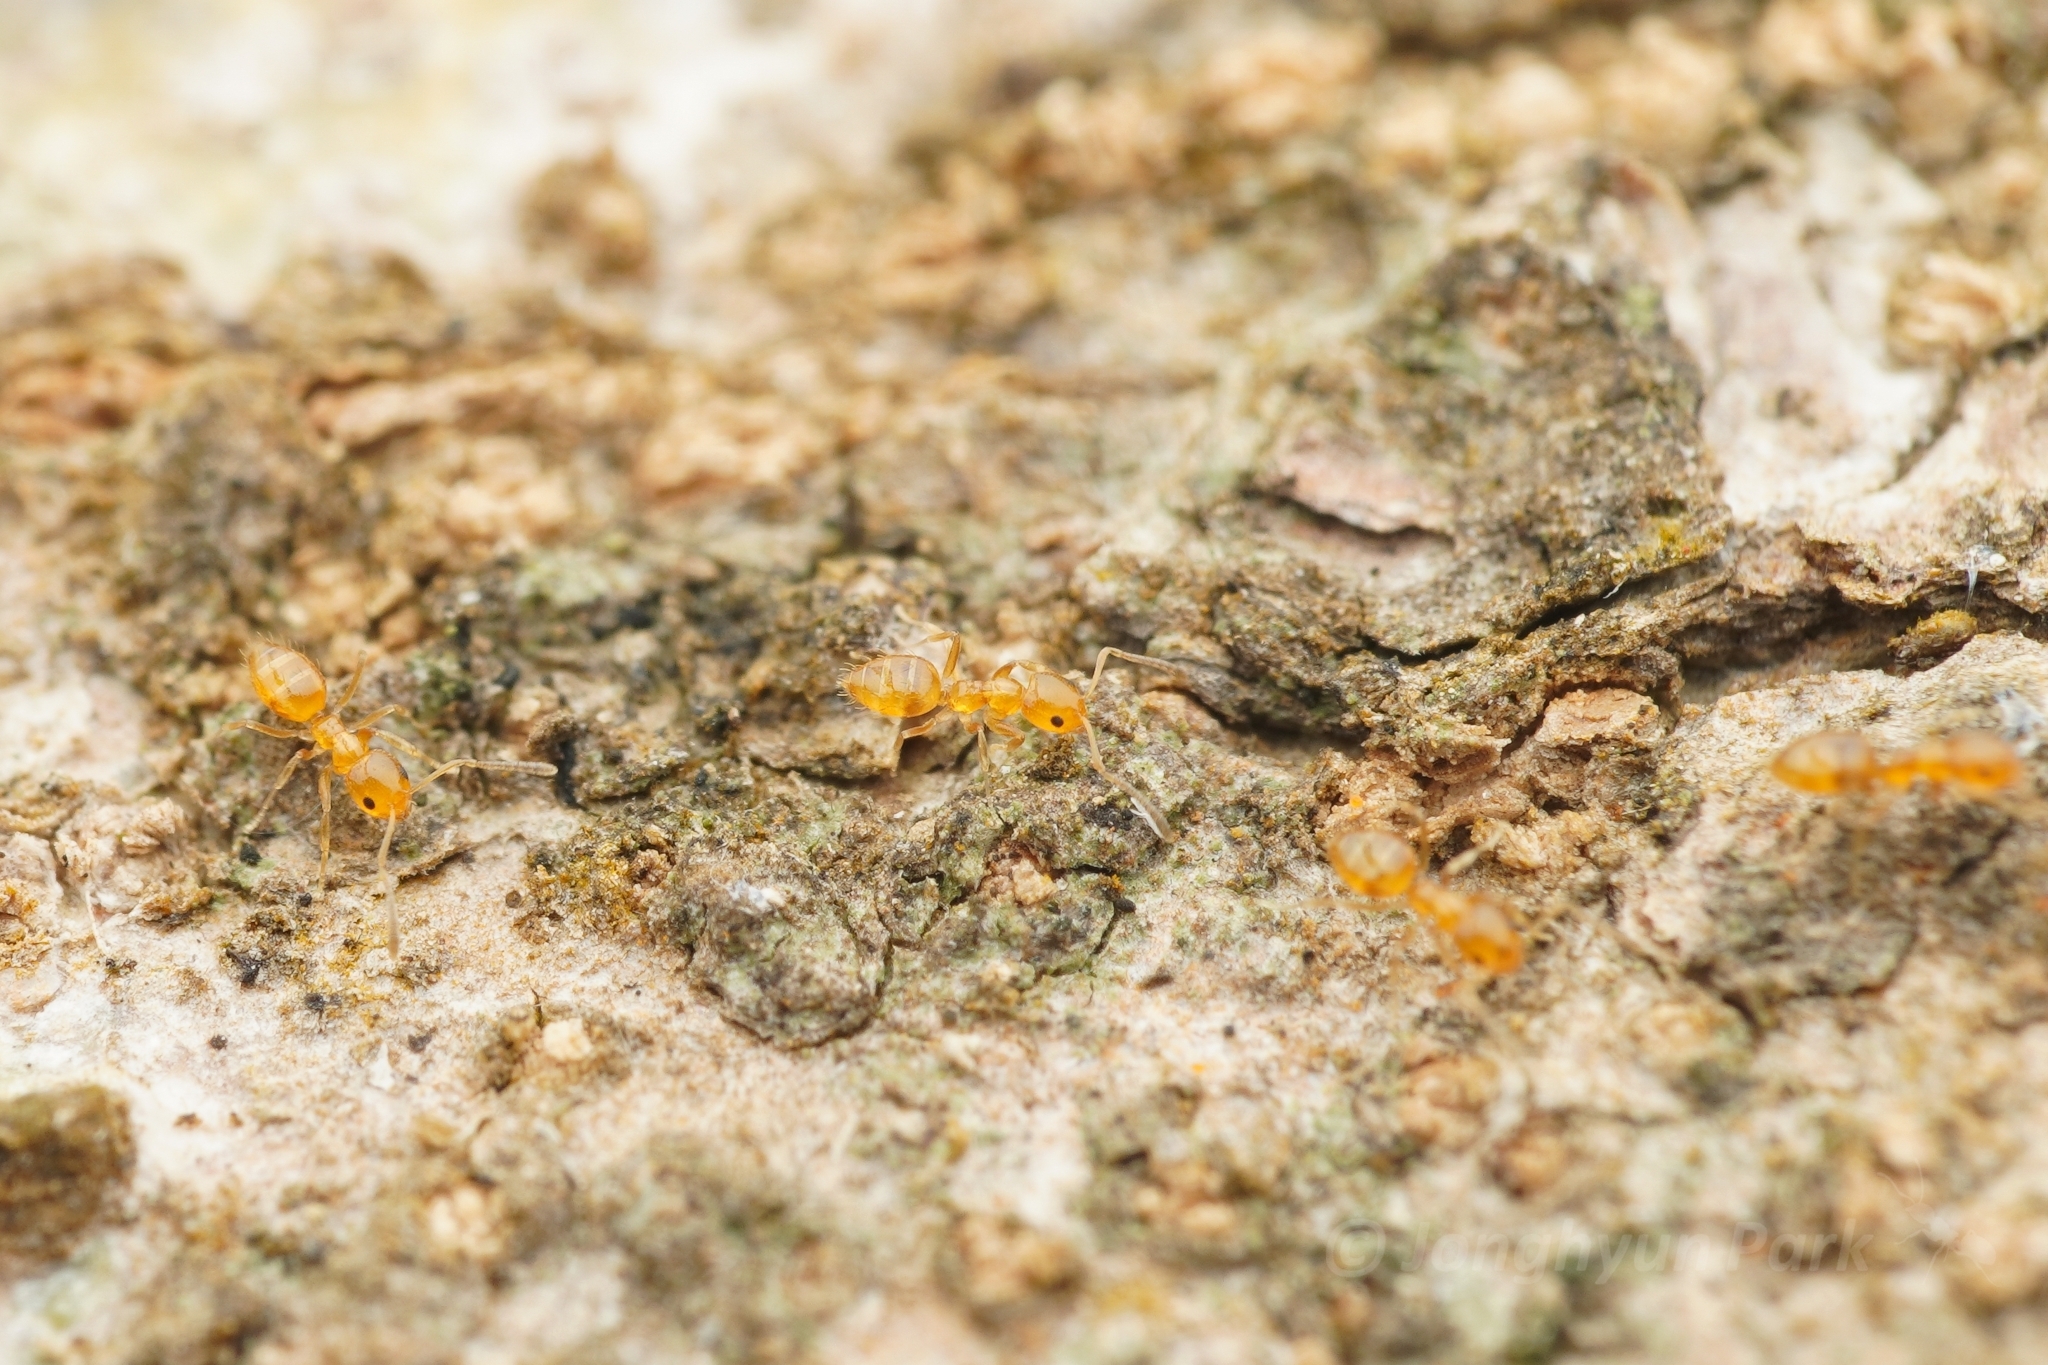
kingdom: Animalia
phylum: Arthropoda
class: Insecta
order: Hymenoptera
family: Formicidae
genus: Plagiolepis
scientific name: Plagiolepis alluaudi
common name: Little yellow ant
